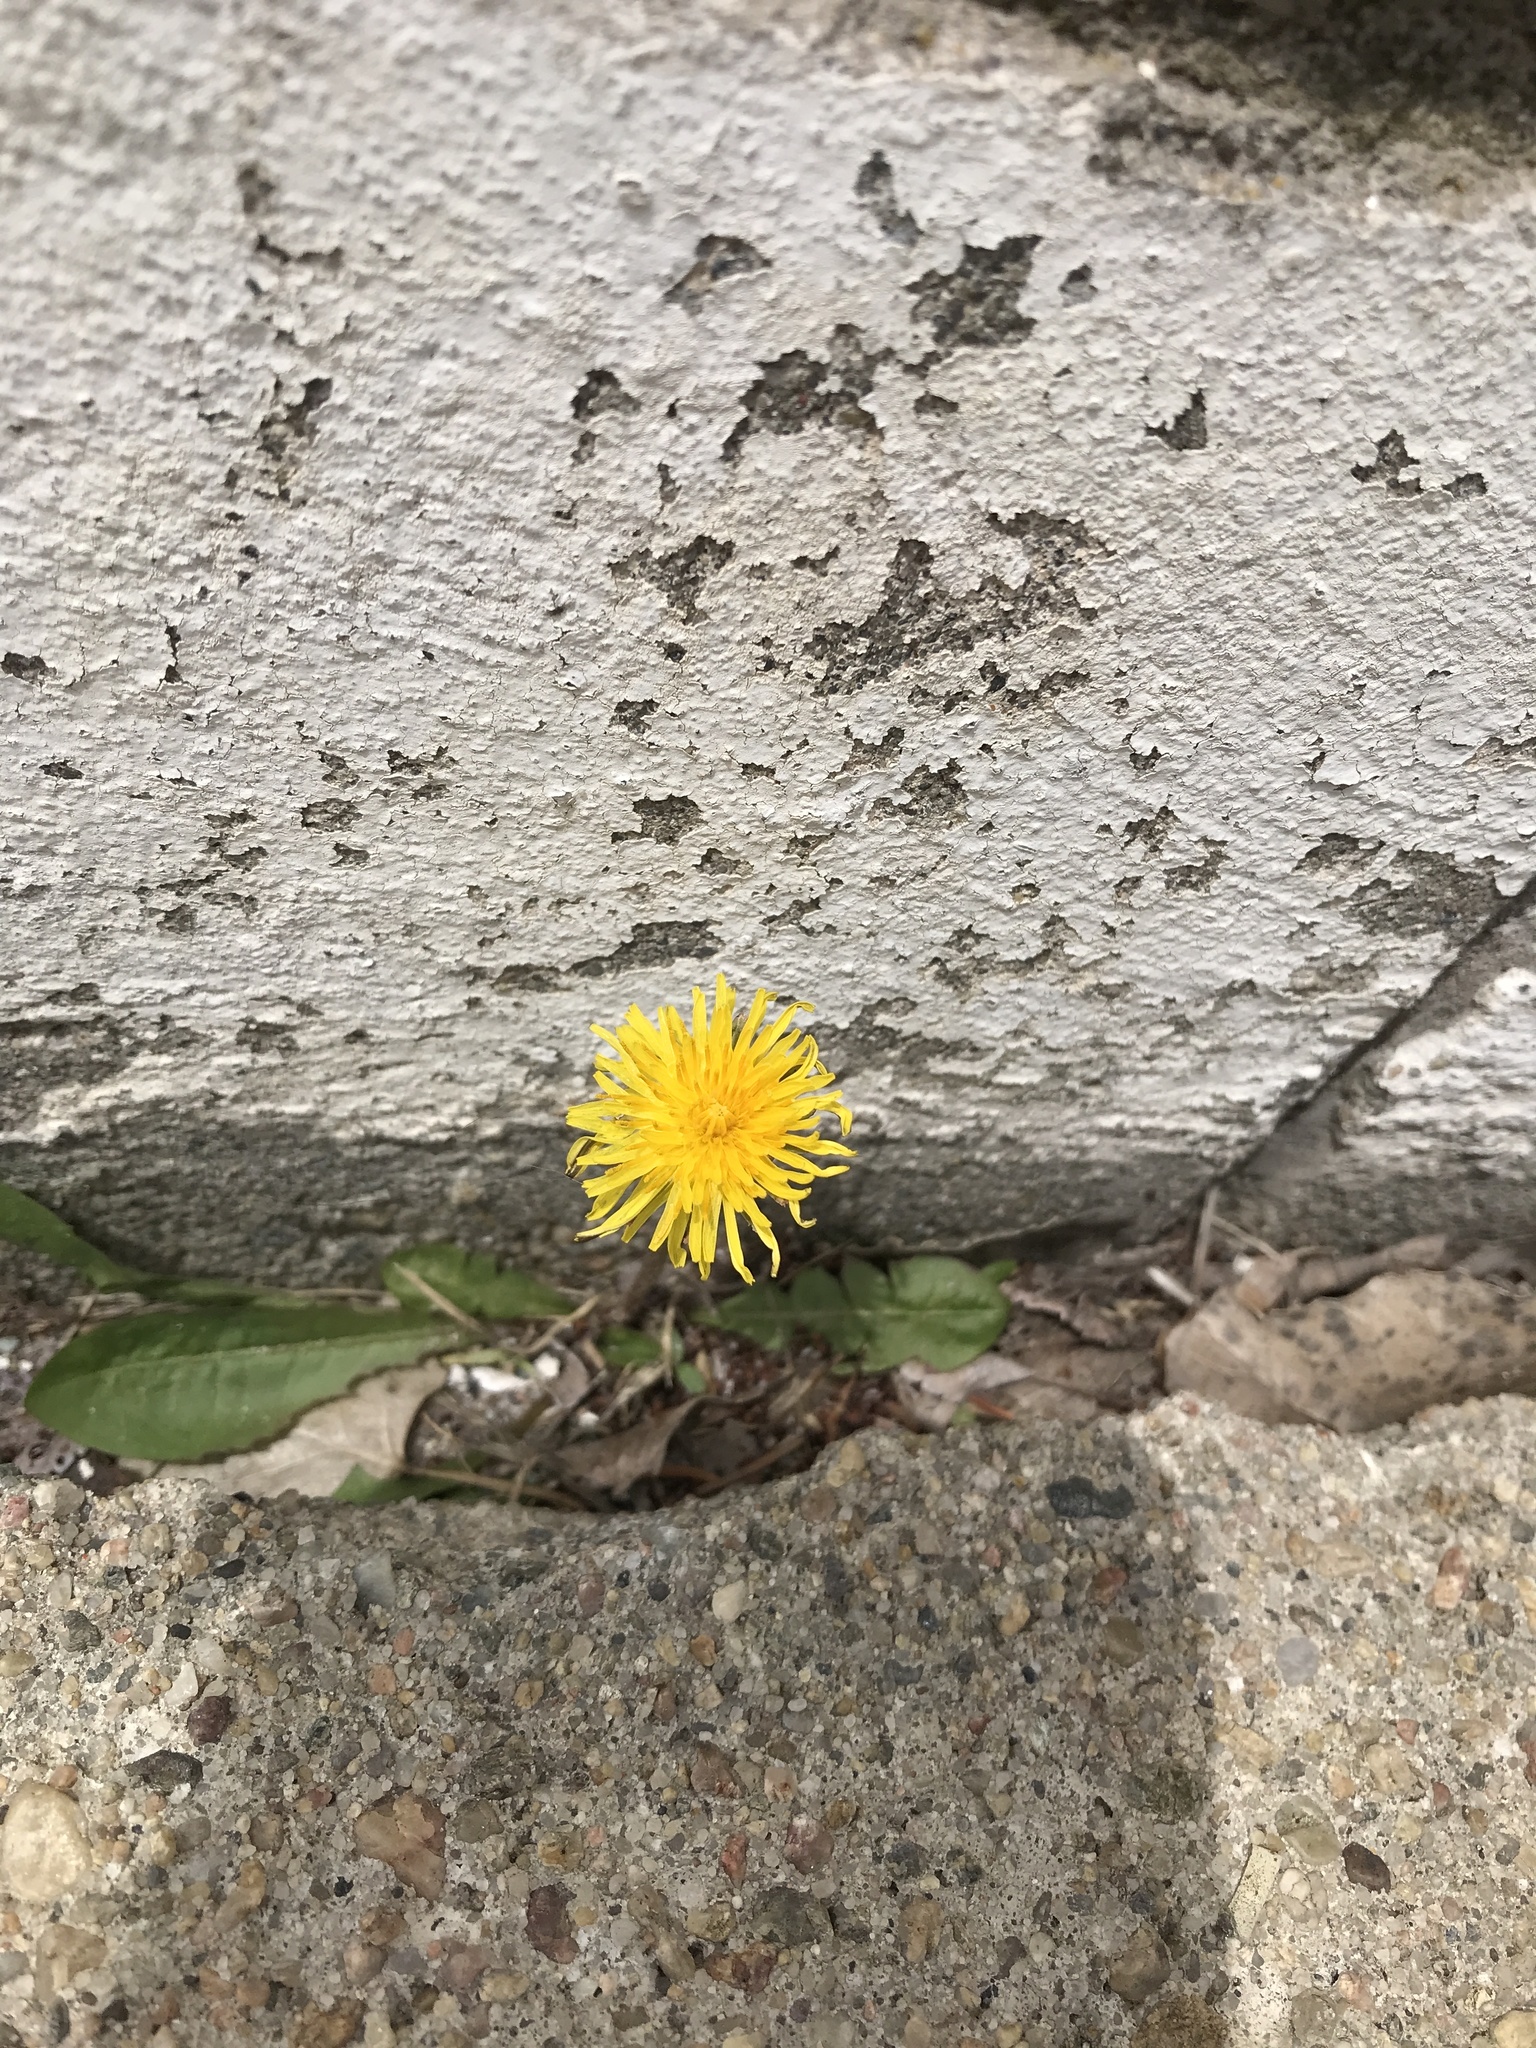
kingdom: Plantae
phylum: Tracheophyta
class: Magnoliopsida
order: Asterales
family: Asteraceae
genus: Taraxacum
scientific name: Taraxacum
